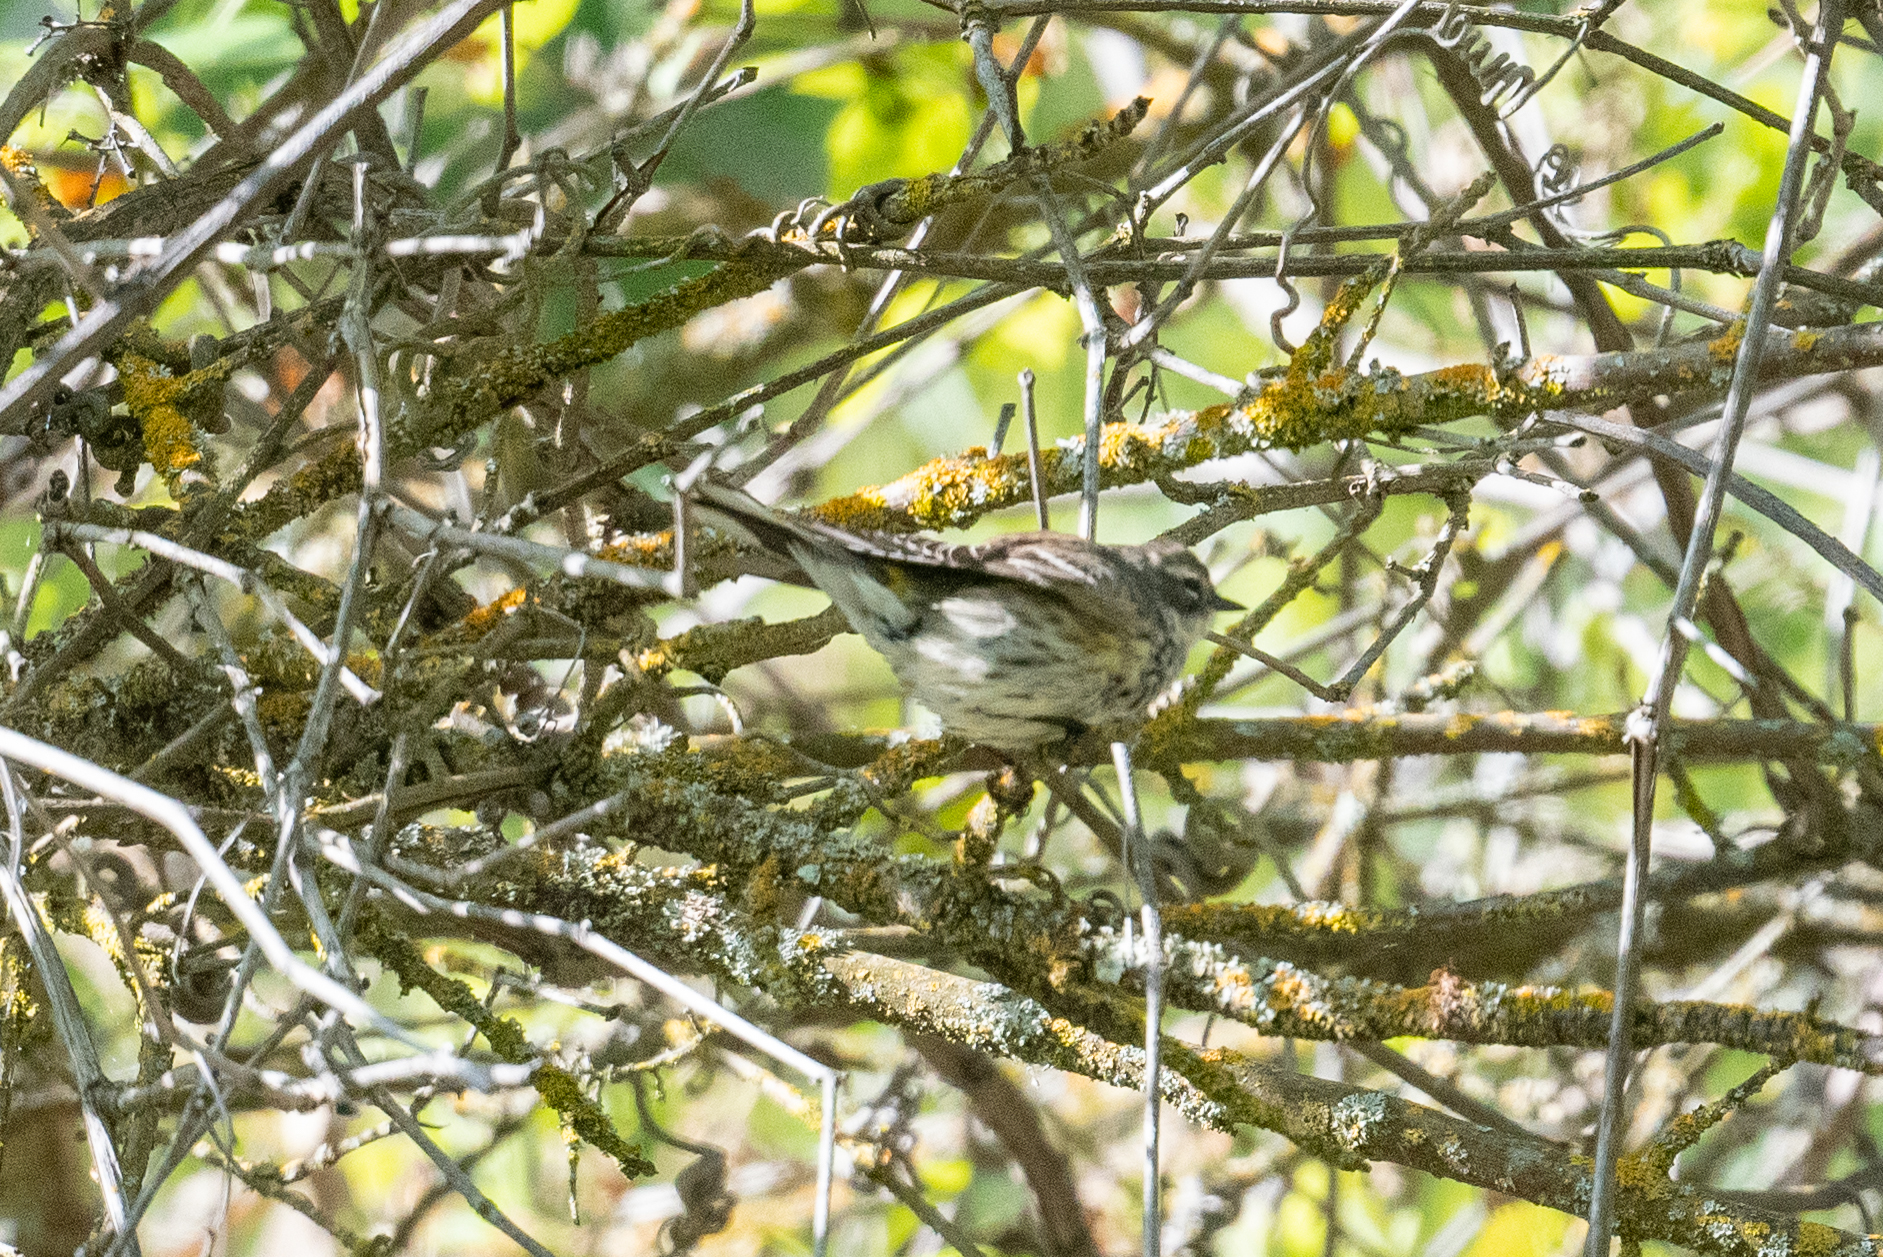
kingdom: Animalia
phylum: Chordata
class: Aves
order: Passeriformes
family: Parulidae
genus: Setophaga
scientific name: Setophaga coronata
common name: Myrtle warbler
